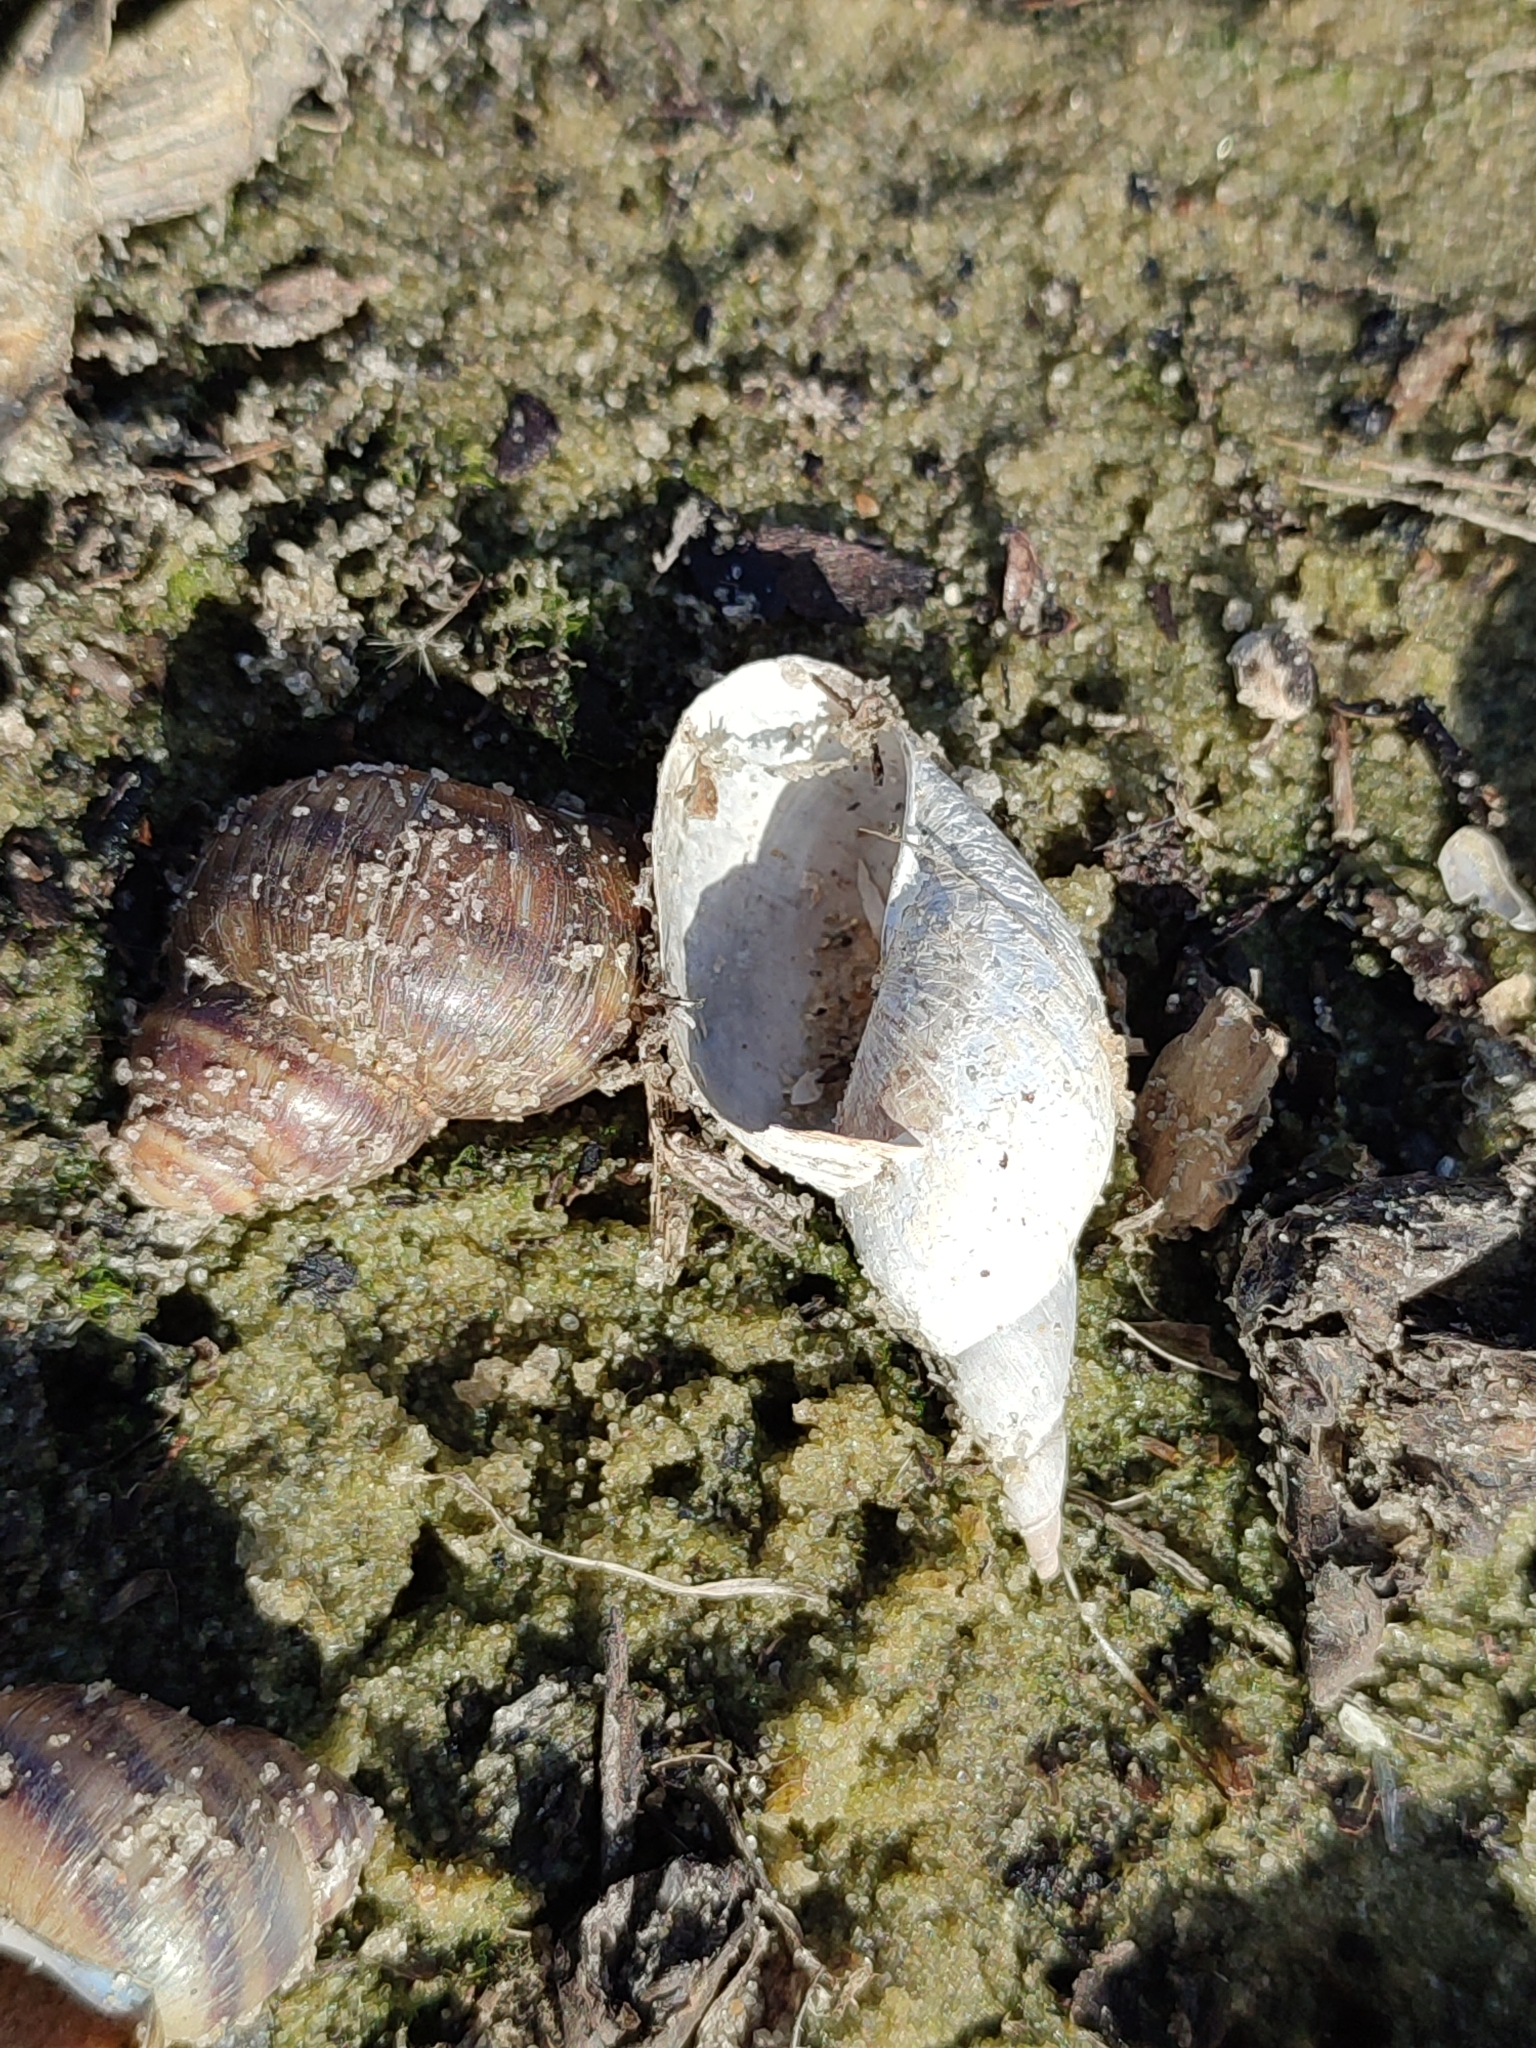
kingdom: Animalia
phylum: Mollusca
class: Gastropoda
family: Lymnaeidae
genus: Lymnaea
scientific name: Lymnaea stagnalis
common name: Great pond snail
